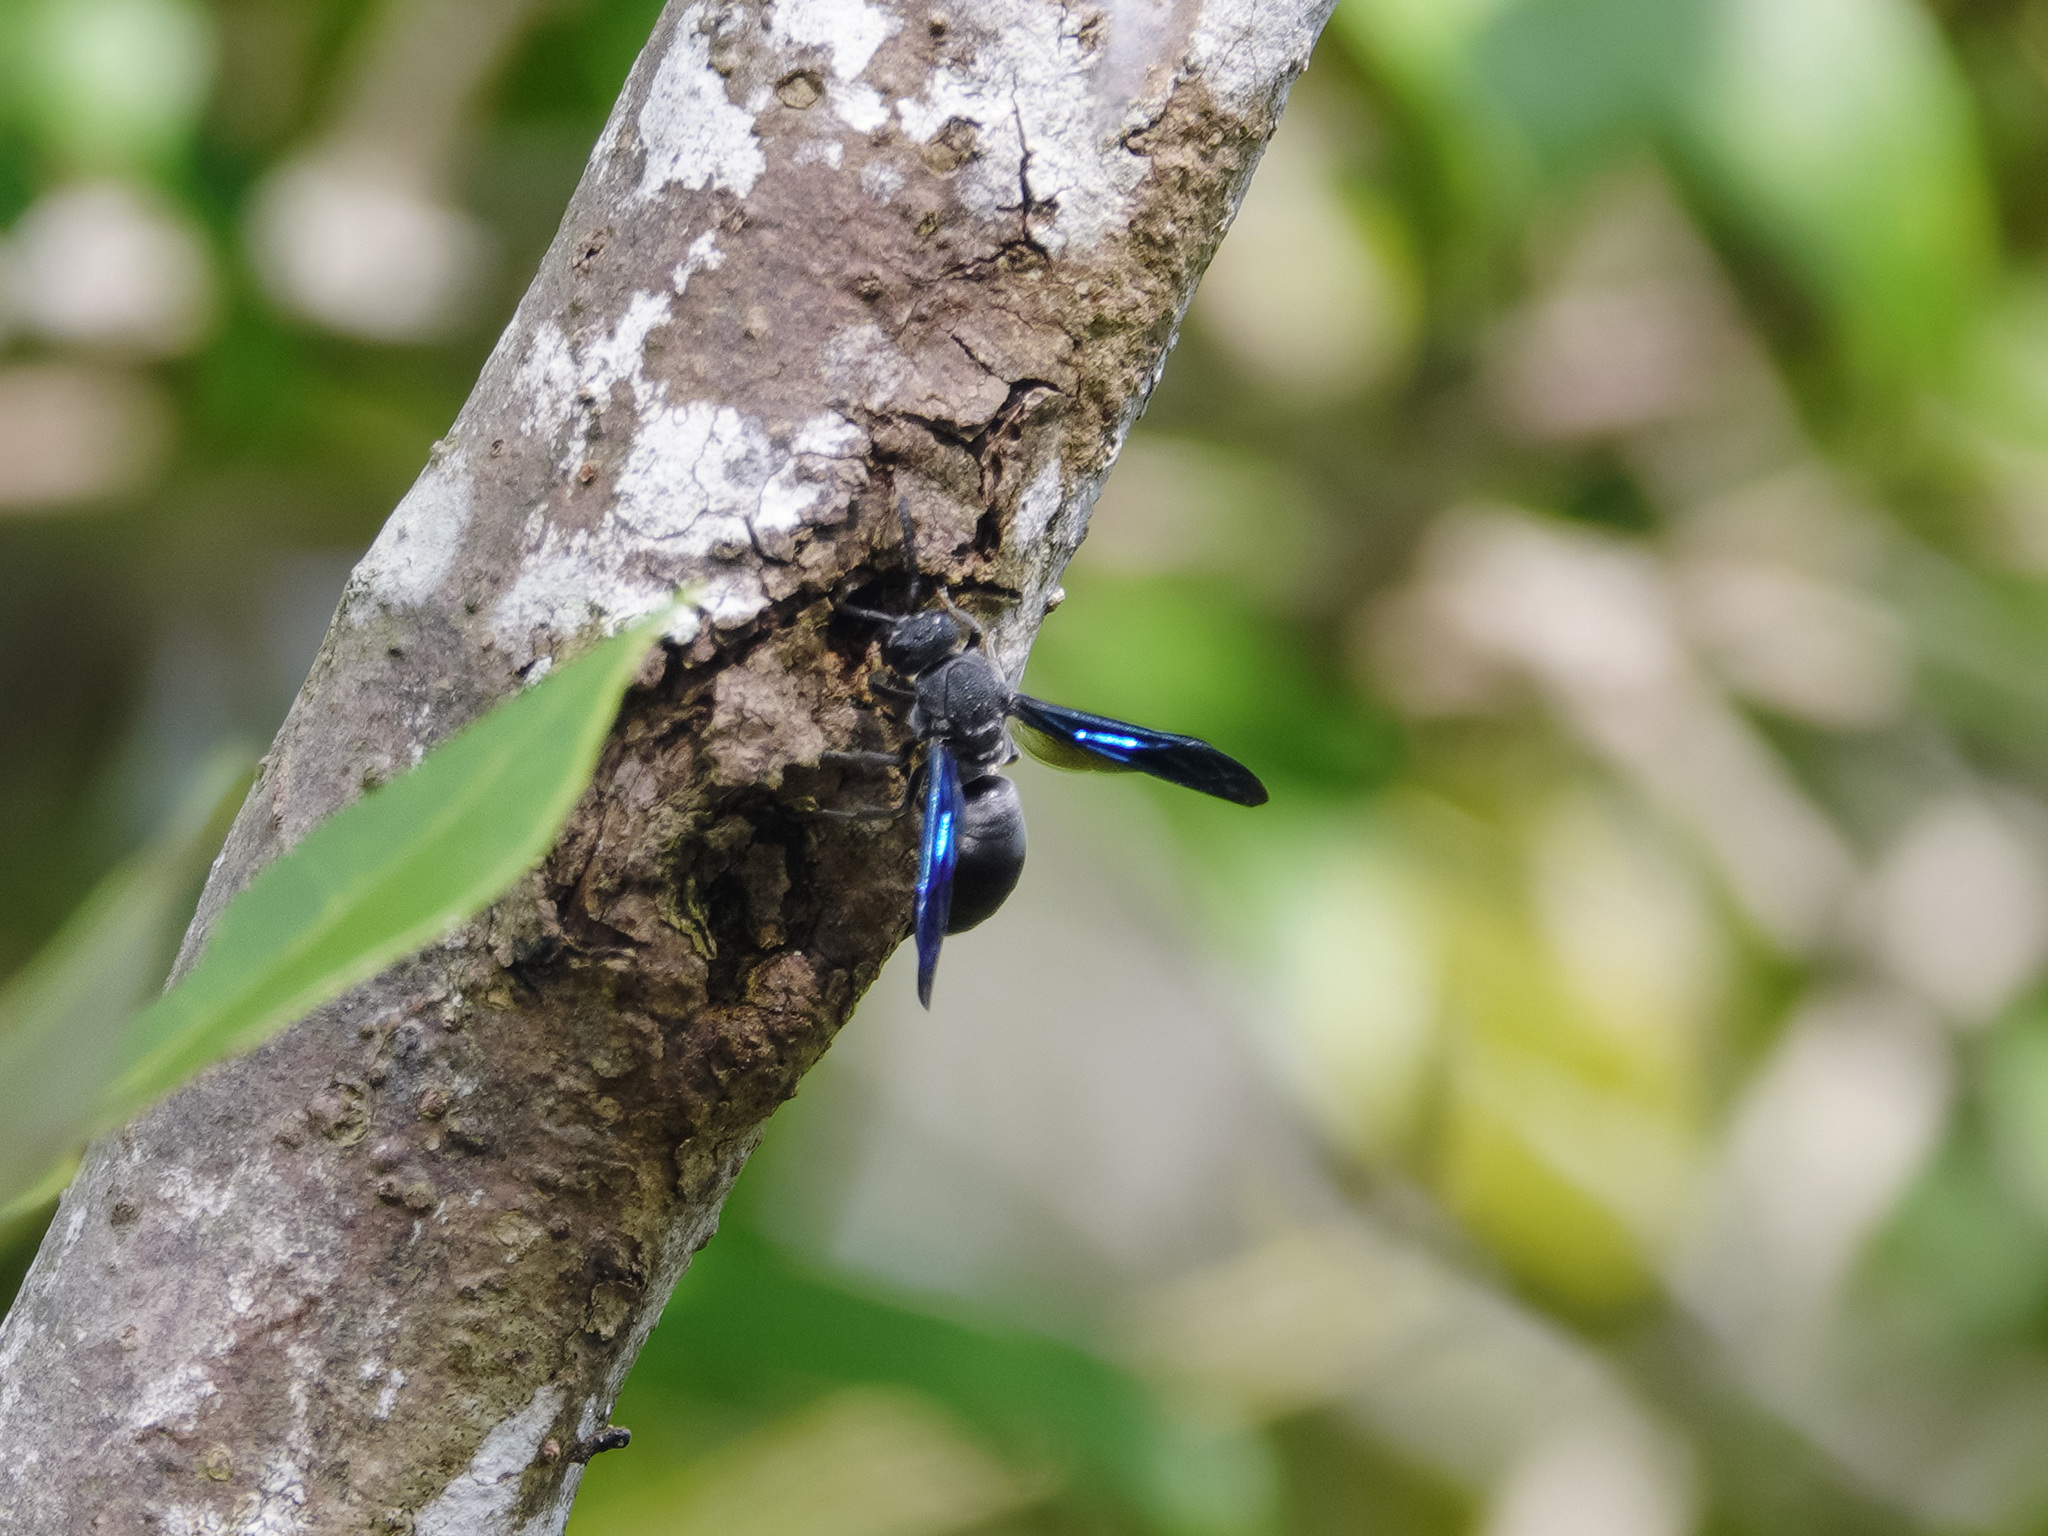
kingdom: Animalia
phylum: Arthropoda
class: Insecta
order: Hymenoptera
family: Eumenidae
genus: Allorhynchium
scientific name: Allorhynchium argentatum
